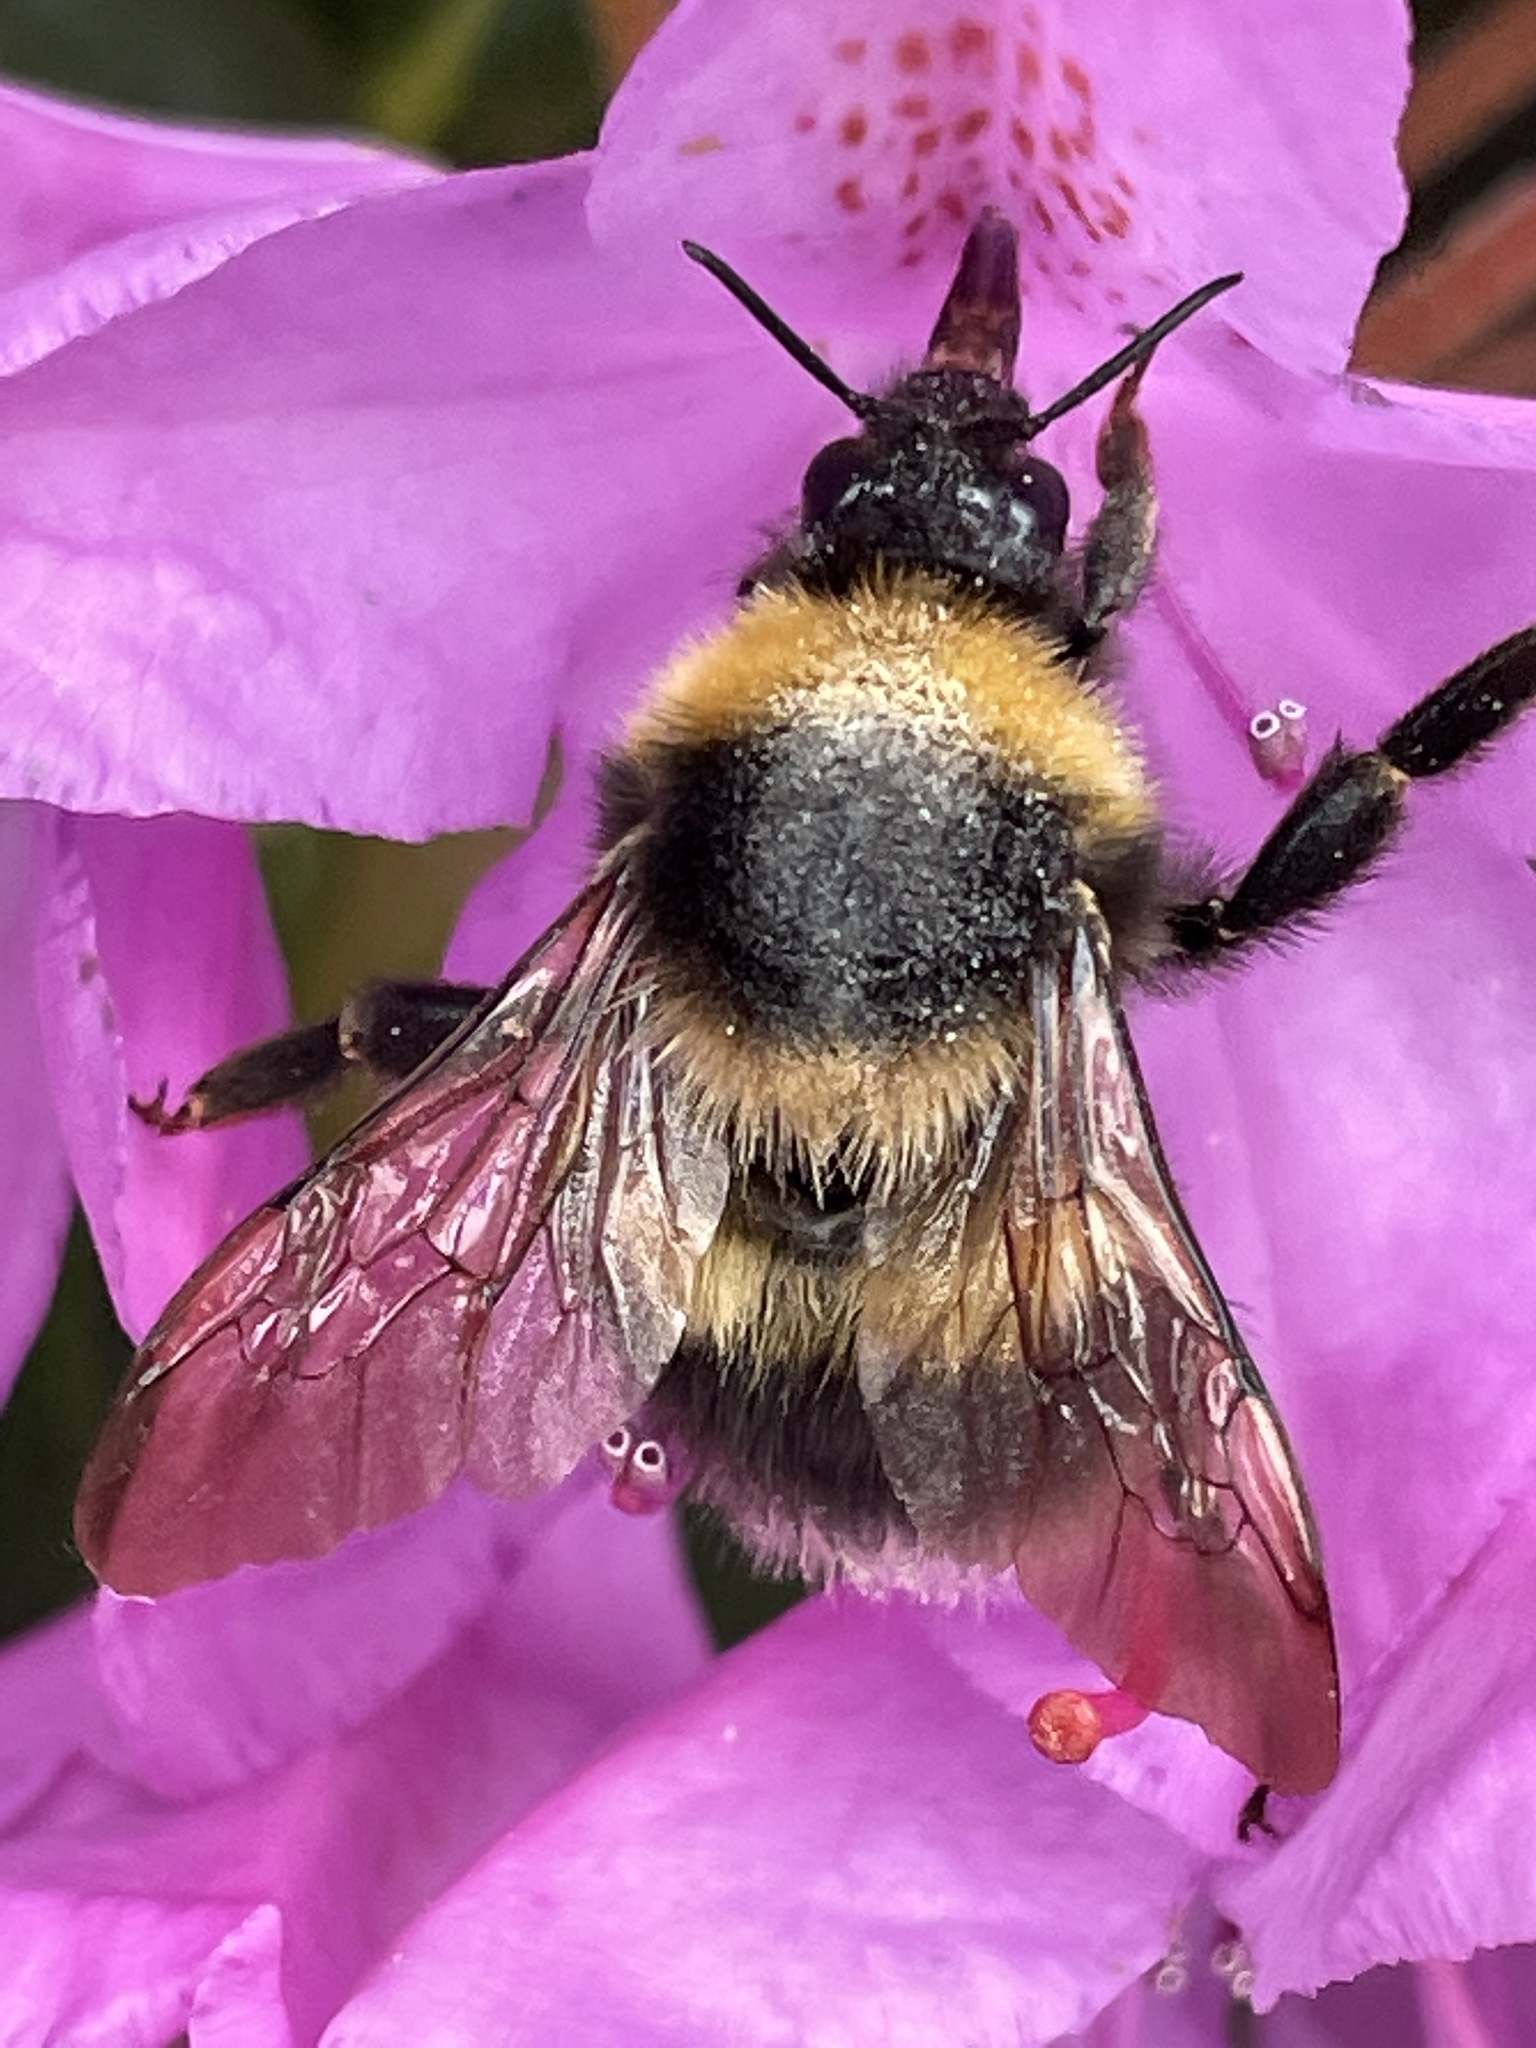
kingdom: Animalia
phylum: Arthropoda
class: Insecta
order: Hymenoptera
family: Apidae
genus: Bombus
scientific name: Bombus hortorum
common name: Garden bumblebee
